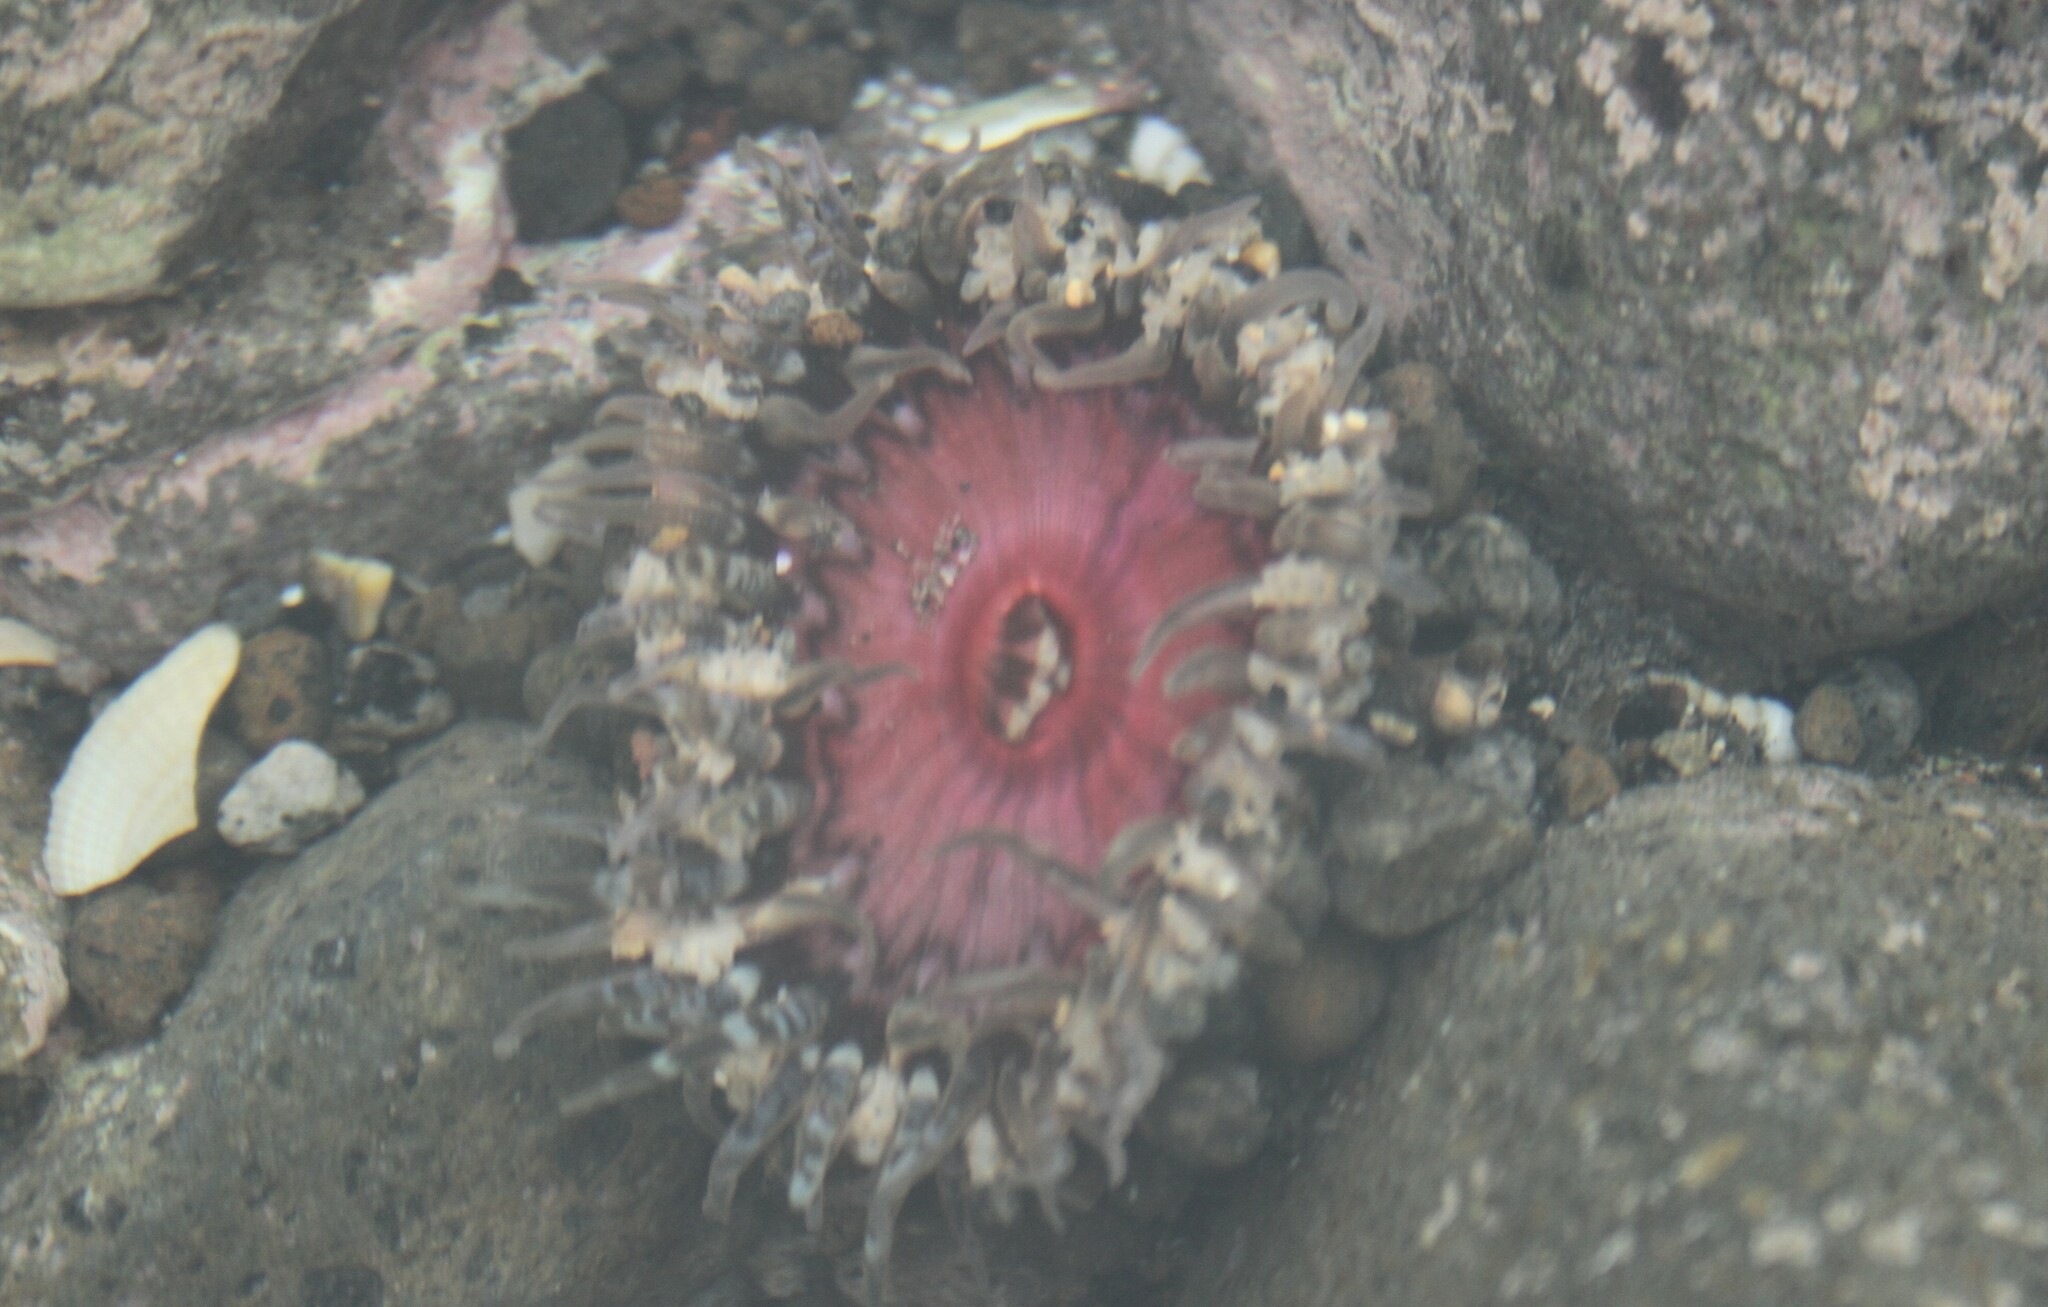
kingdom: Animalia
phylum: Cnidaria
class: Anthozoa
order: Actiniaria
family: Actiniidae
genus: Oulactis
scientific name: Oulactis muscosa
